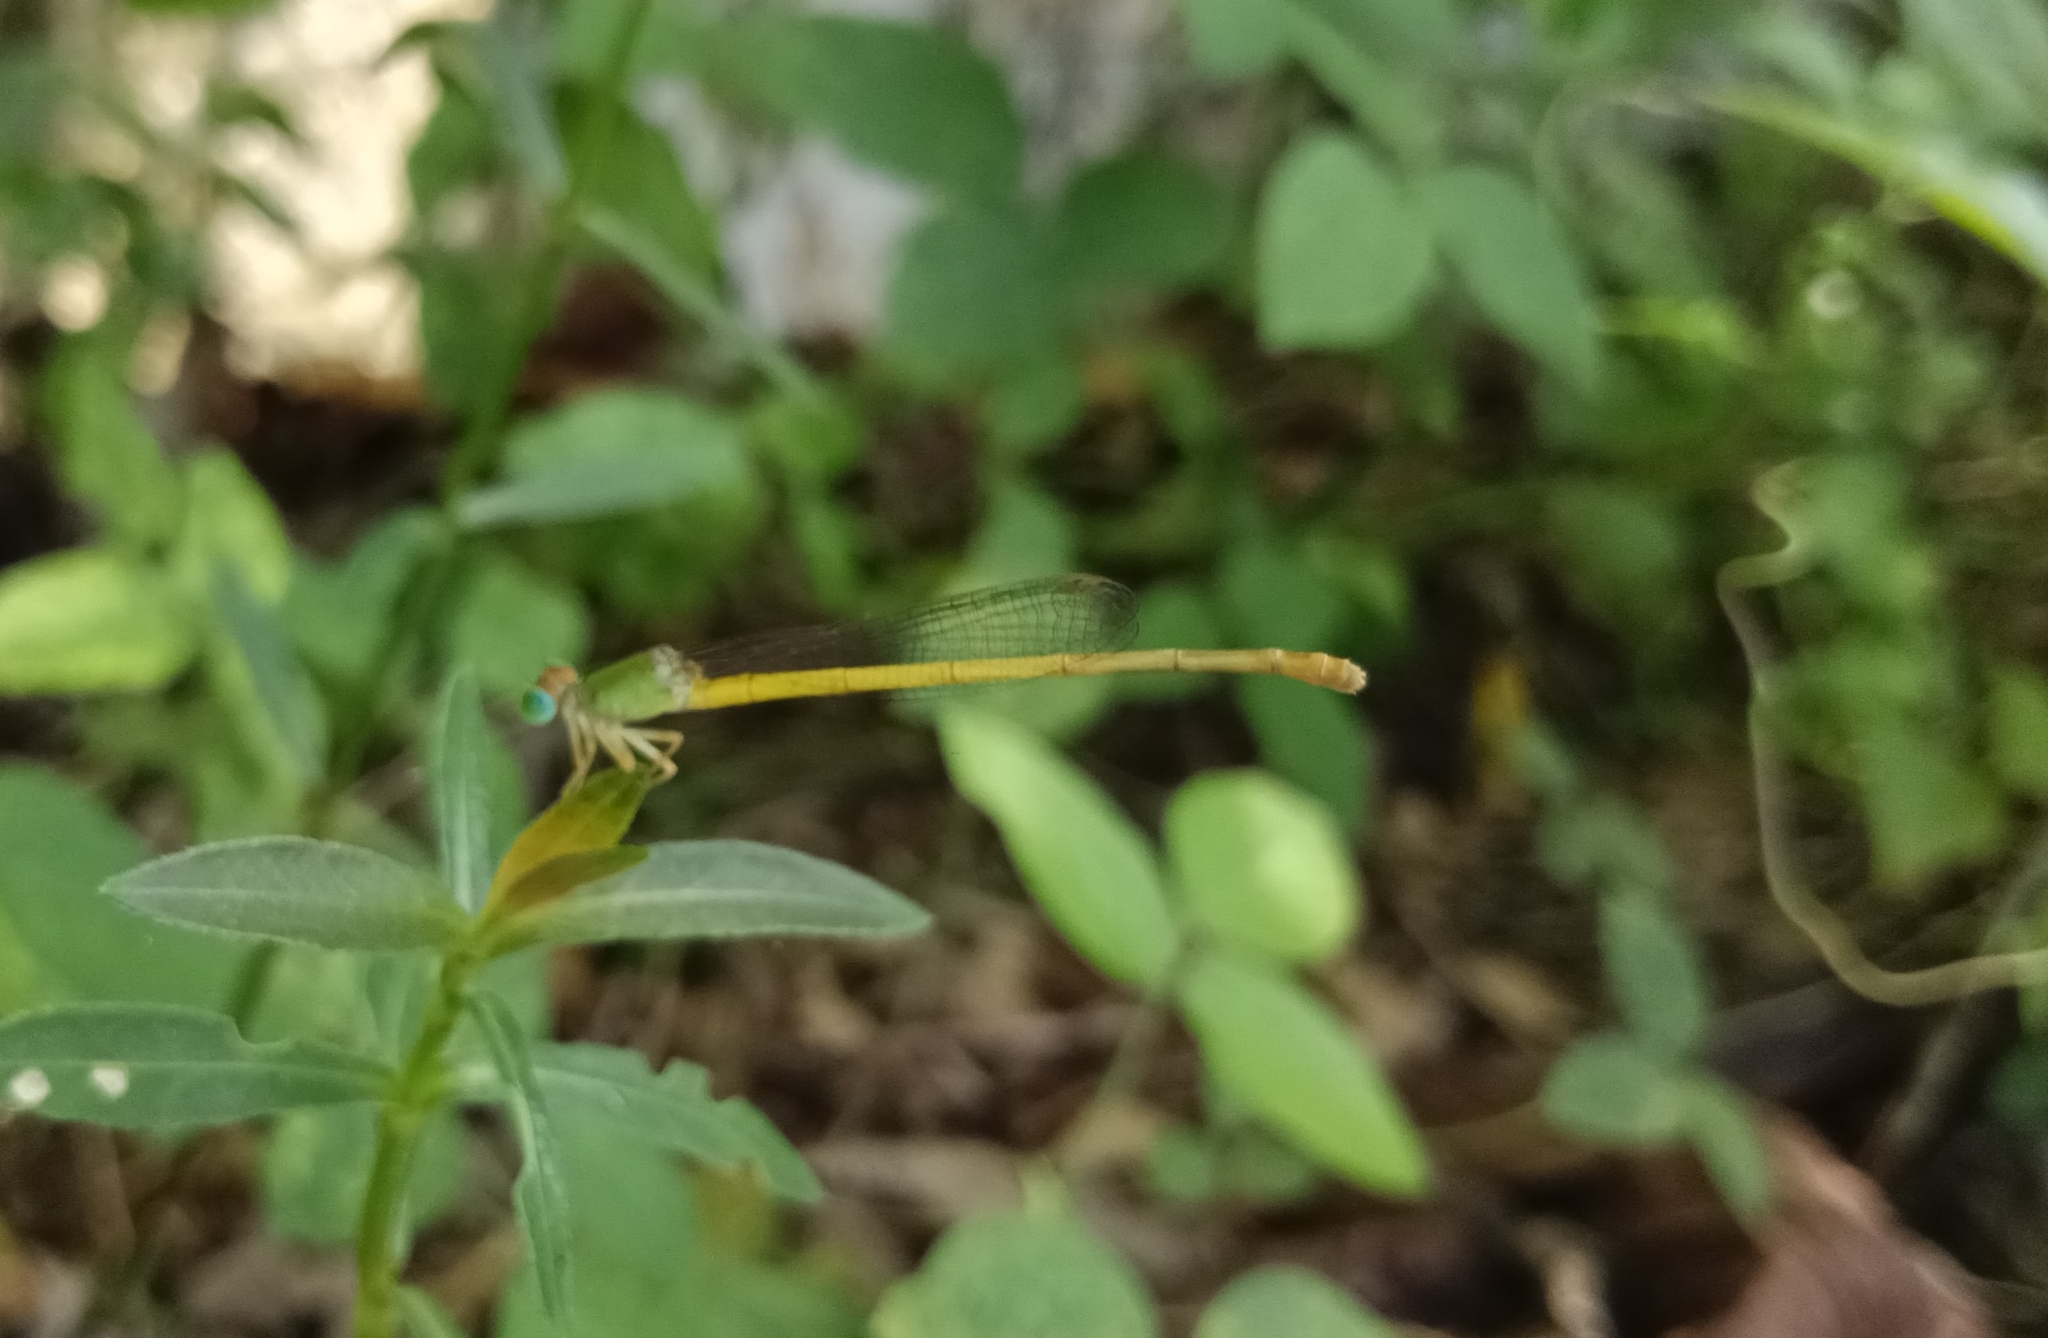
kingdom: Animalia
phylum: Arthropoda
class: Insecta
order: Odonata
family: Coenagrionidae
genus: Ceriagrion
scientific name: Ceriagrion coromandelianum
